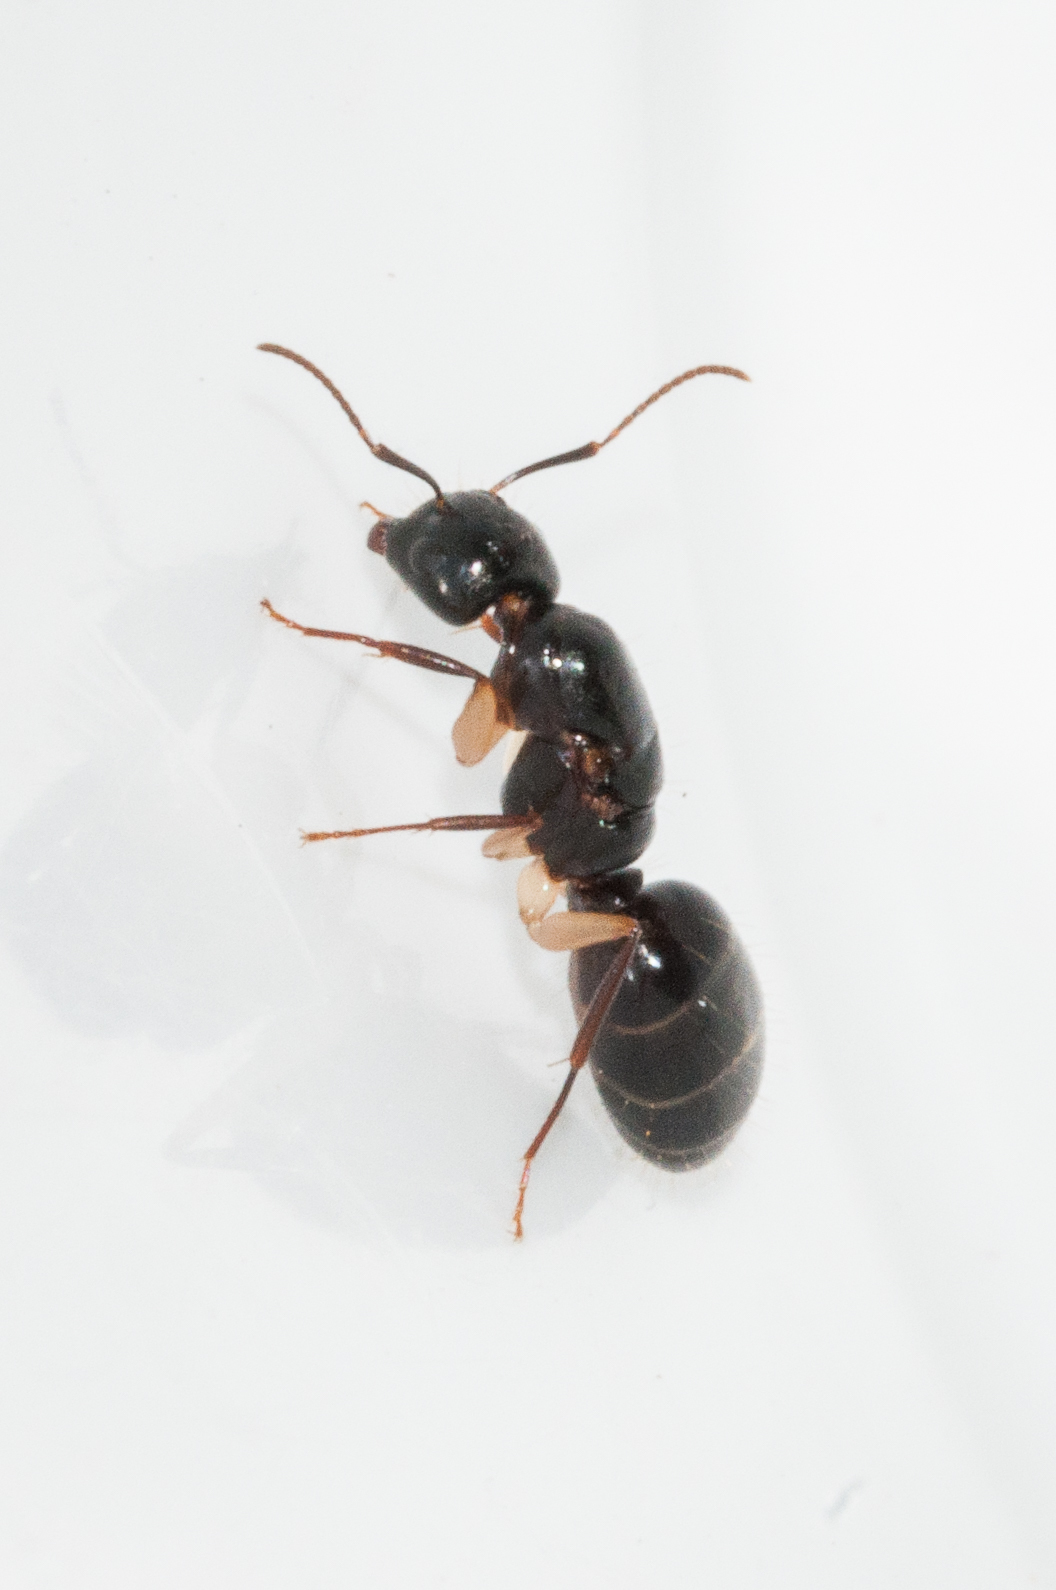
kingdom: Animalia
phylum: Arthropoda
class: Insecta
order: Hymenoptera
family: Formicidae
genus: Camponotus
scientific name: Camponotus bertolonii
